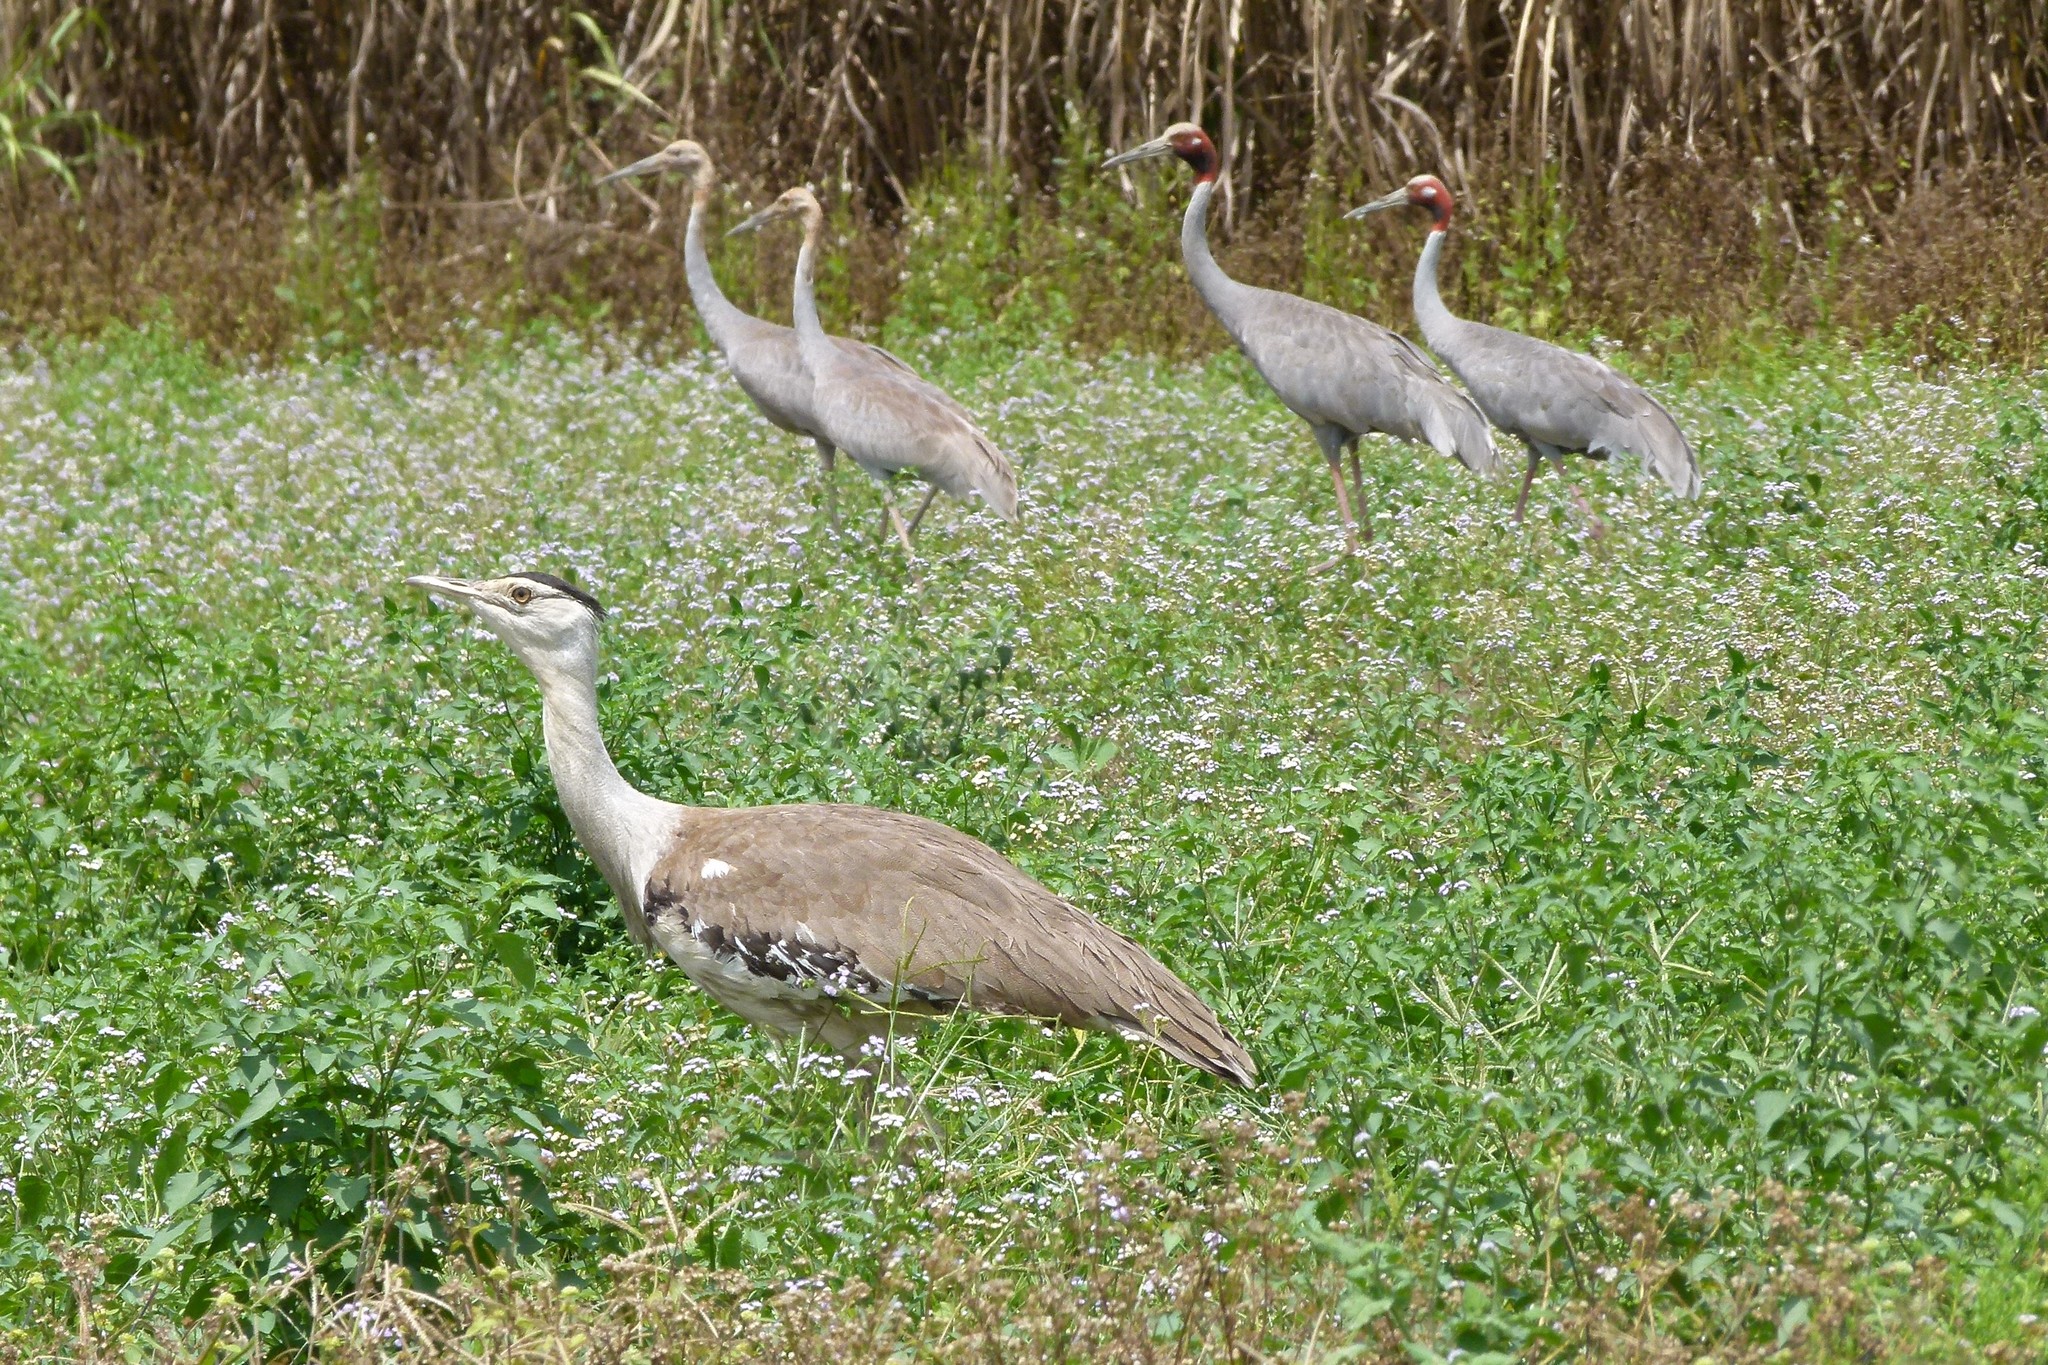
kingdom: Animalia
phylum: Chordata
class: Aves
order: Otidiformes
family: Otididae
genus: Ardeotis
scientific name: Ardeotis australis
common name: Australian bustard
